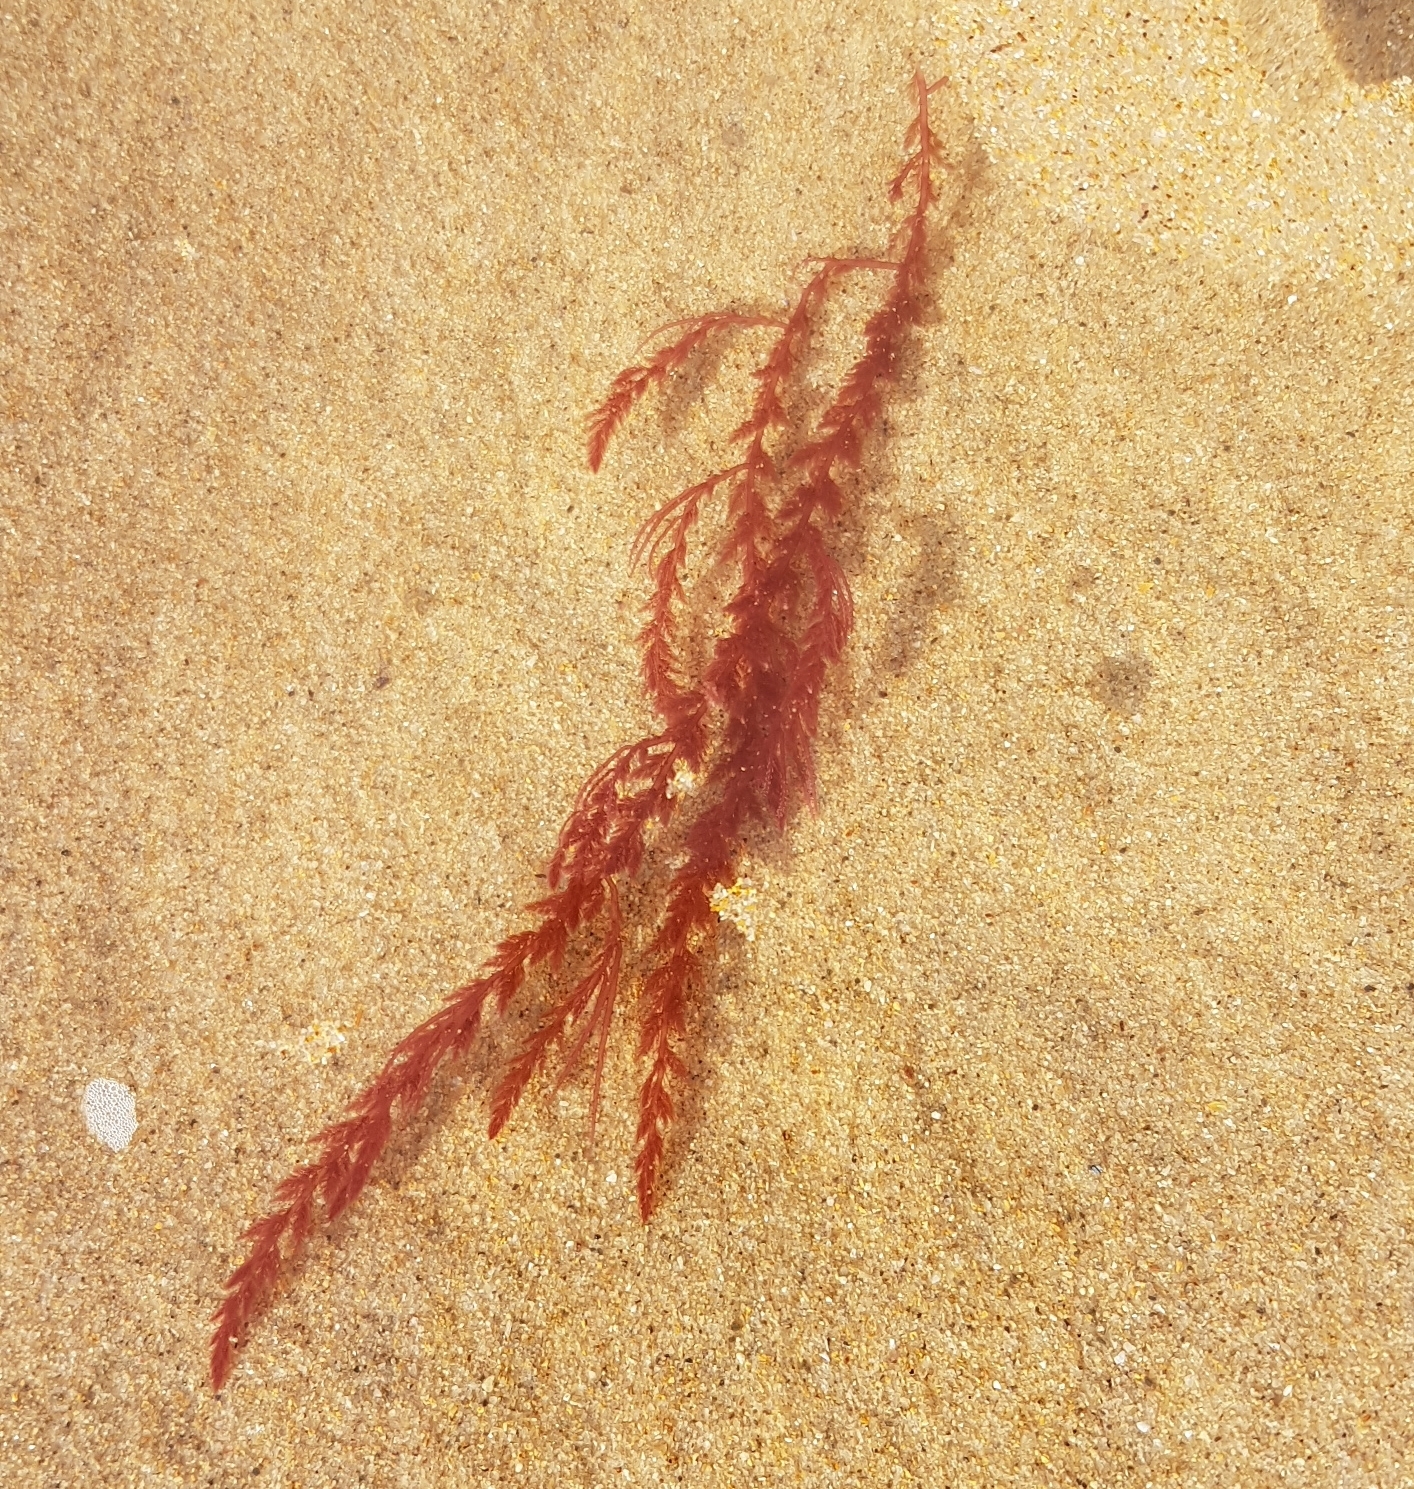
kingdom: Plantae
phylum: Rhodophyta
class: Florideophyceae
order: Bonnemaisoniales
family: Bonnemaisoniaceae
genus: Asparagopsis
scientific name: Asparagopsis armata
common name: Harpoon weed
